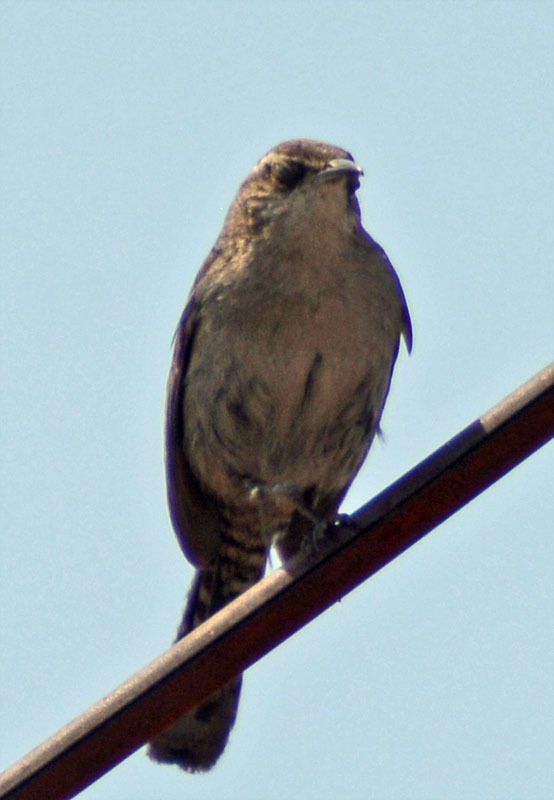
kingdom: Animalia
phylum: Chordata
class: Aves
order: Passeriformes
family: Troglodytidae
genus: Thryomanes
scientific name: Thryomanes bewickii
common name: Bewick's wren
